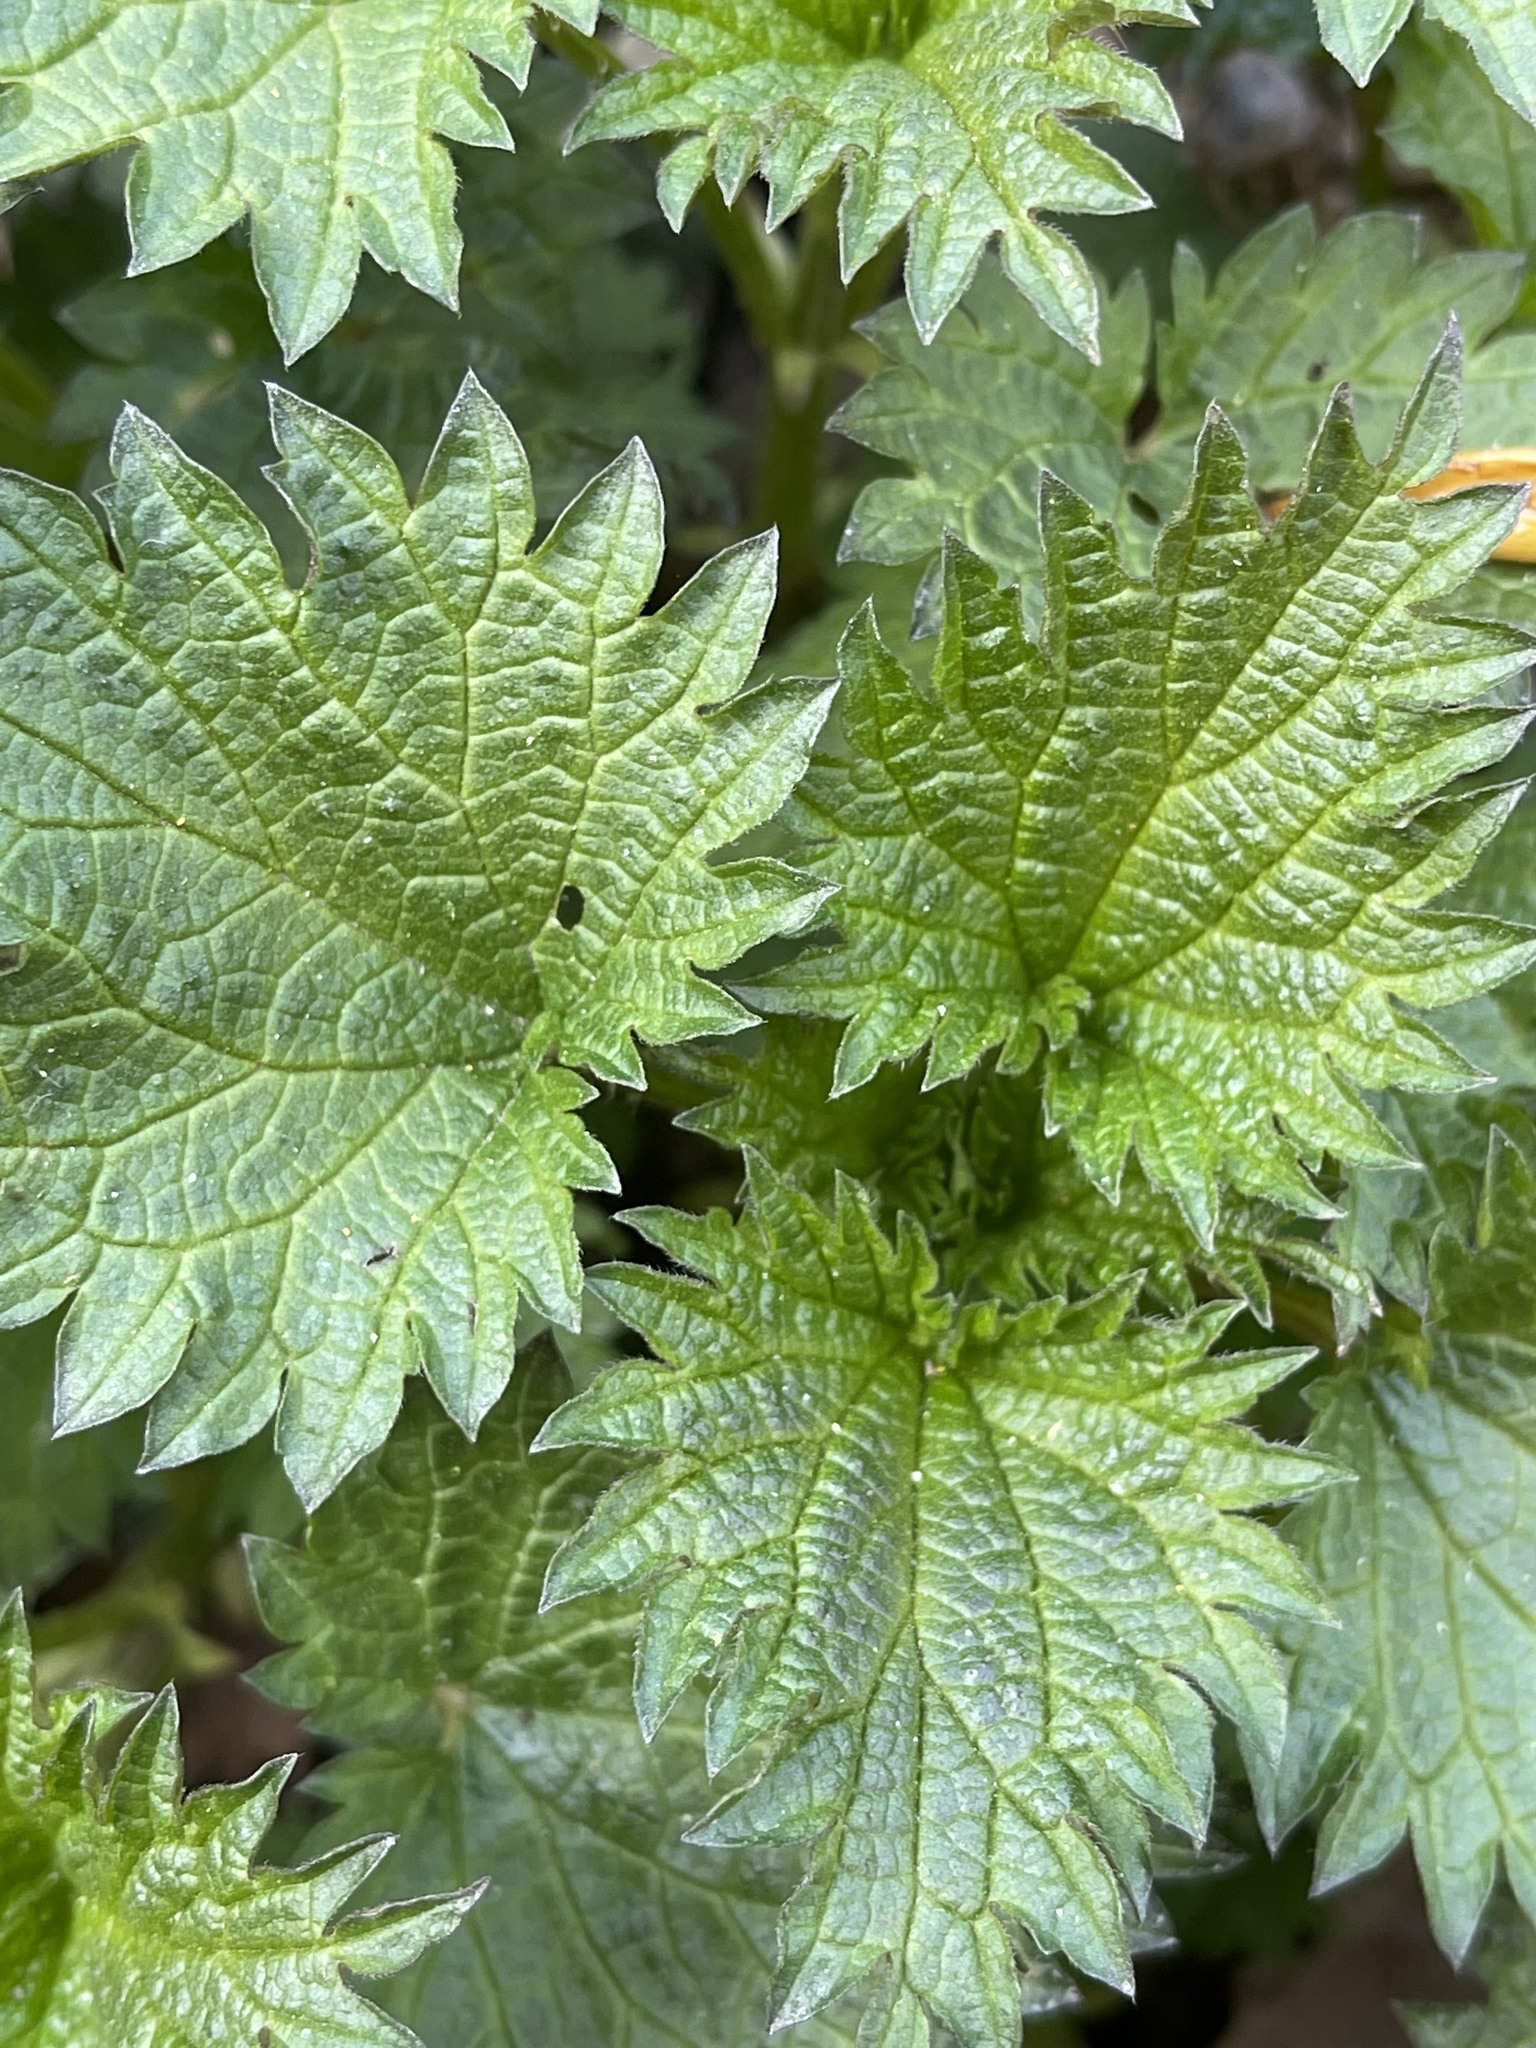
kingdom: Plantae
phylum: Tracheophyta
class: Magnoliopsida
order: Rosales
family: Urticaceae
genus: Urtica
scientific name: Urtica dioica
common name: Common nettle
